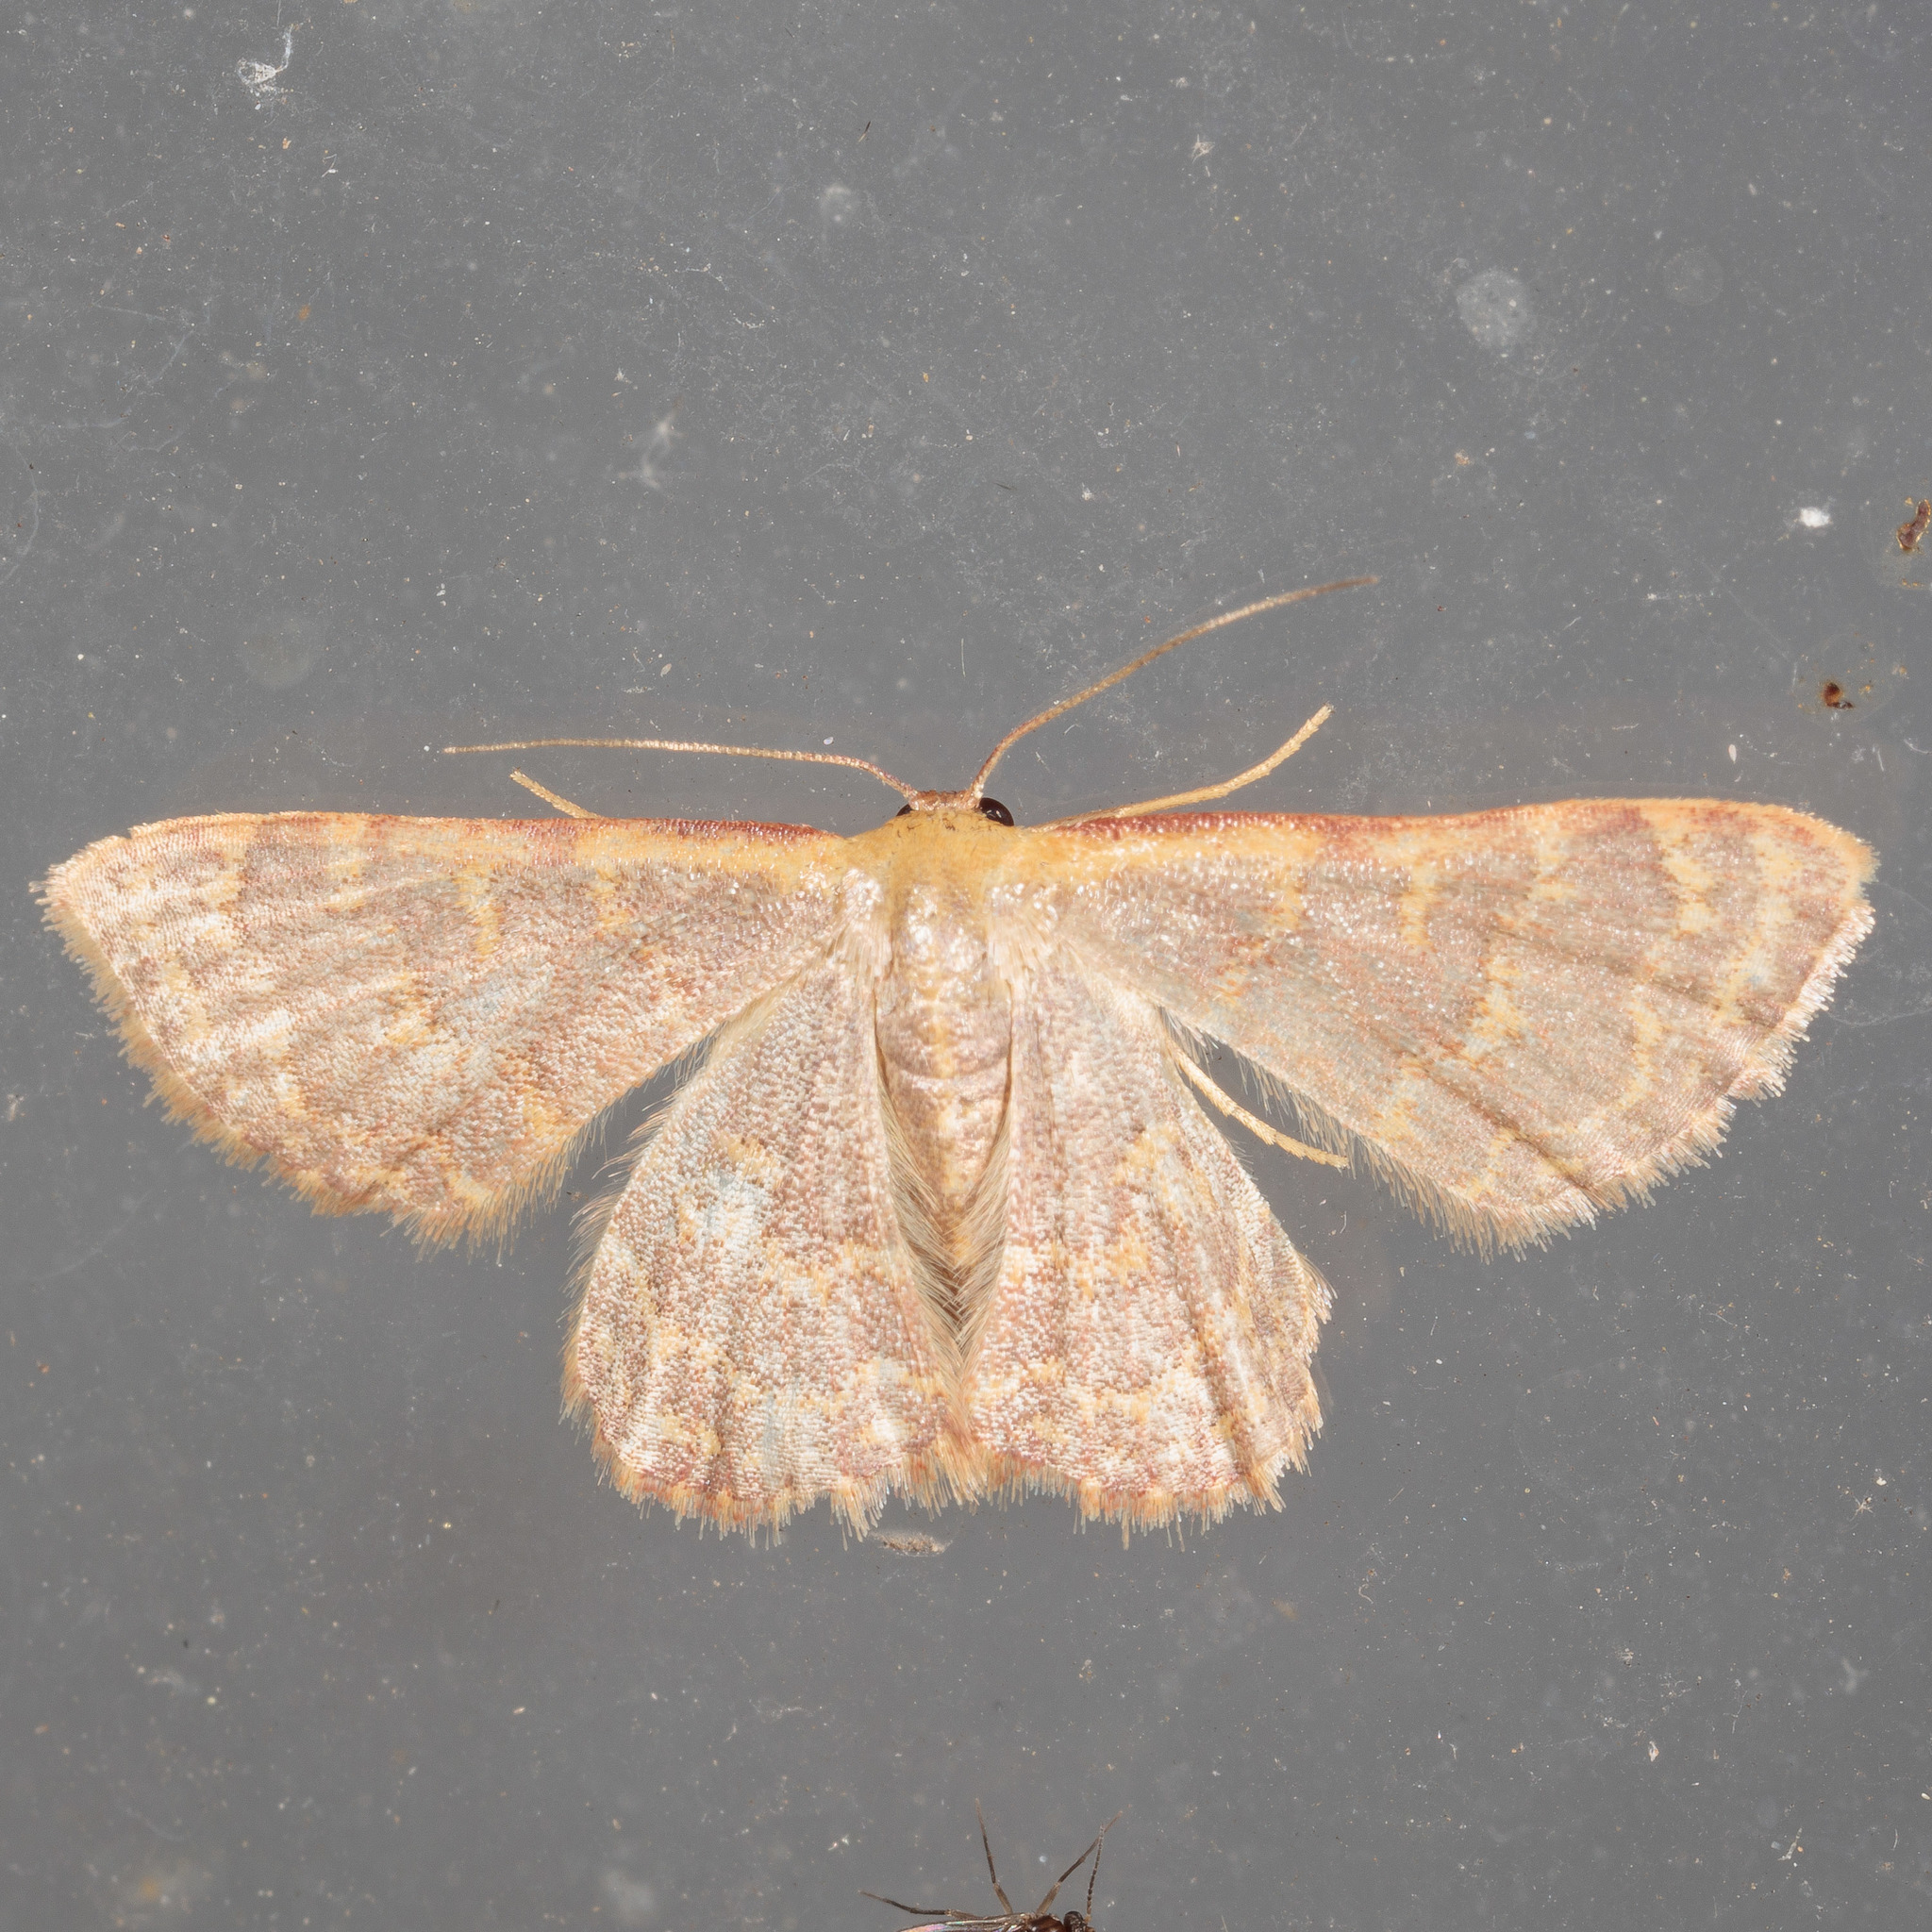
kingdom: Animalia
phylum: Arthropoda
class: Insecta
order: Lepidoptera
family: Geometridae
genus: Leptostales
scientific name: Leptostales pannaria
